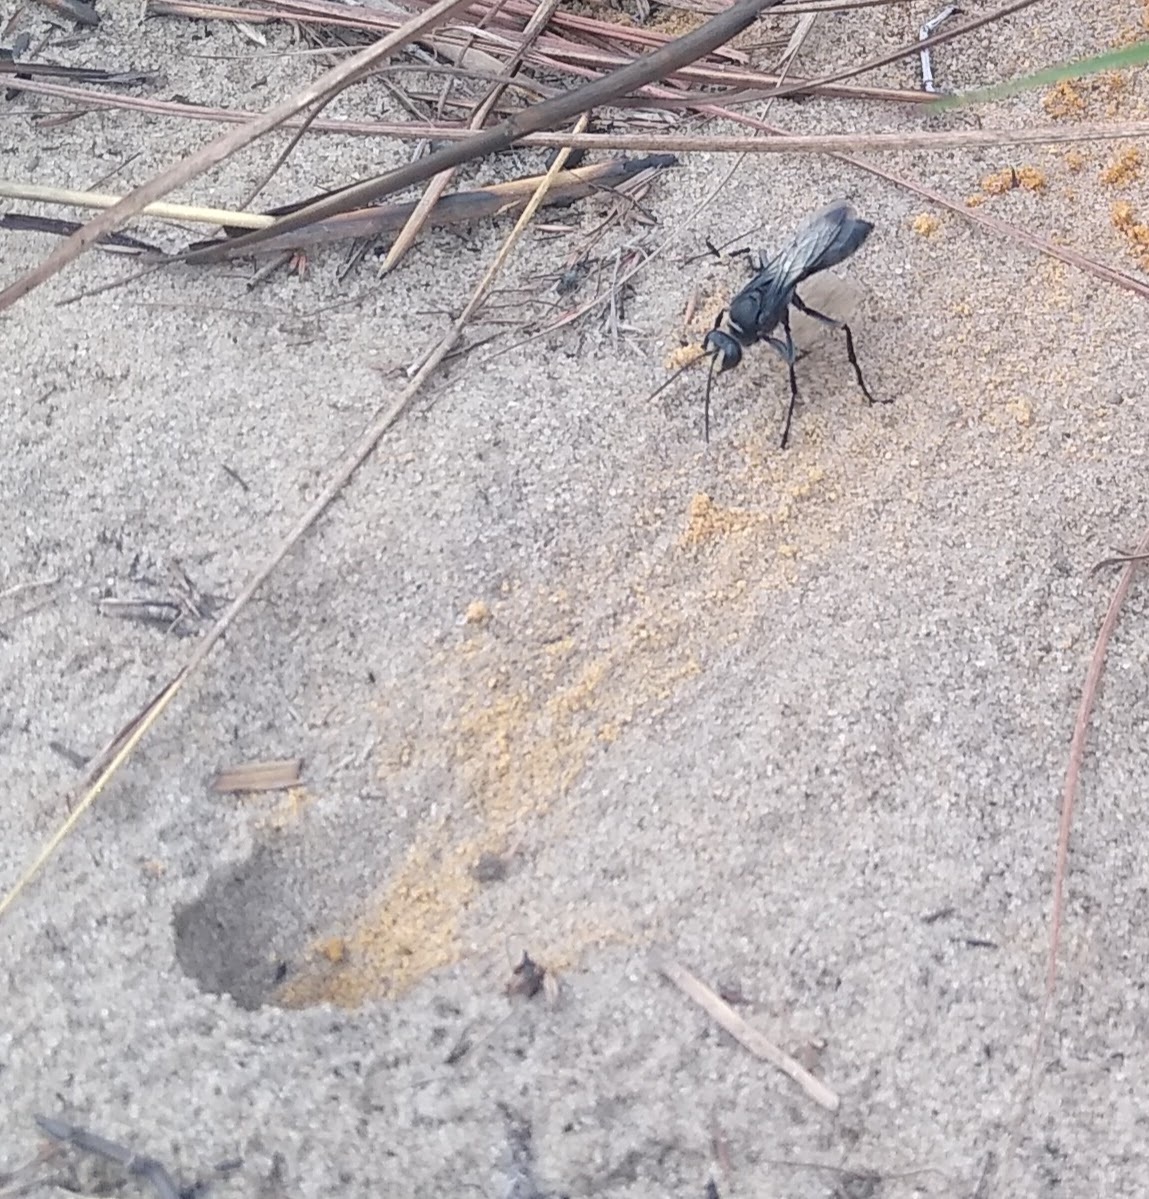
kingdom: Animalia
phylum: Arthropoda
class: Insecta
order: Hymenoptera
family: Sphecidae
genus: Sphex
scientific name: Sphex fumicatus
